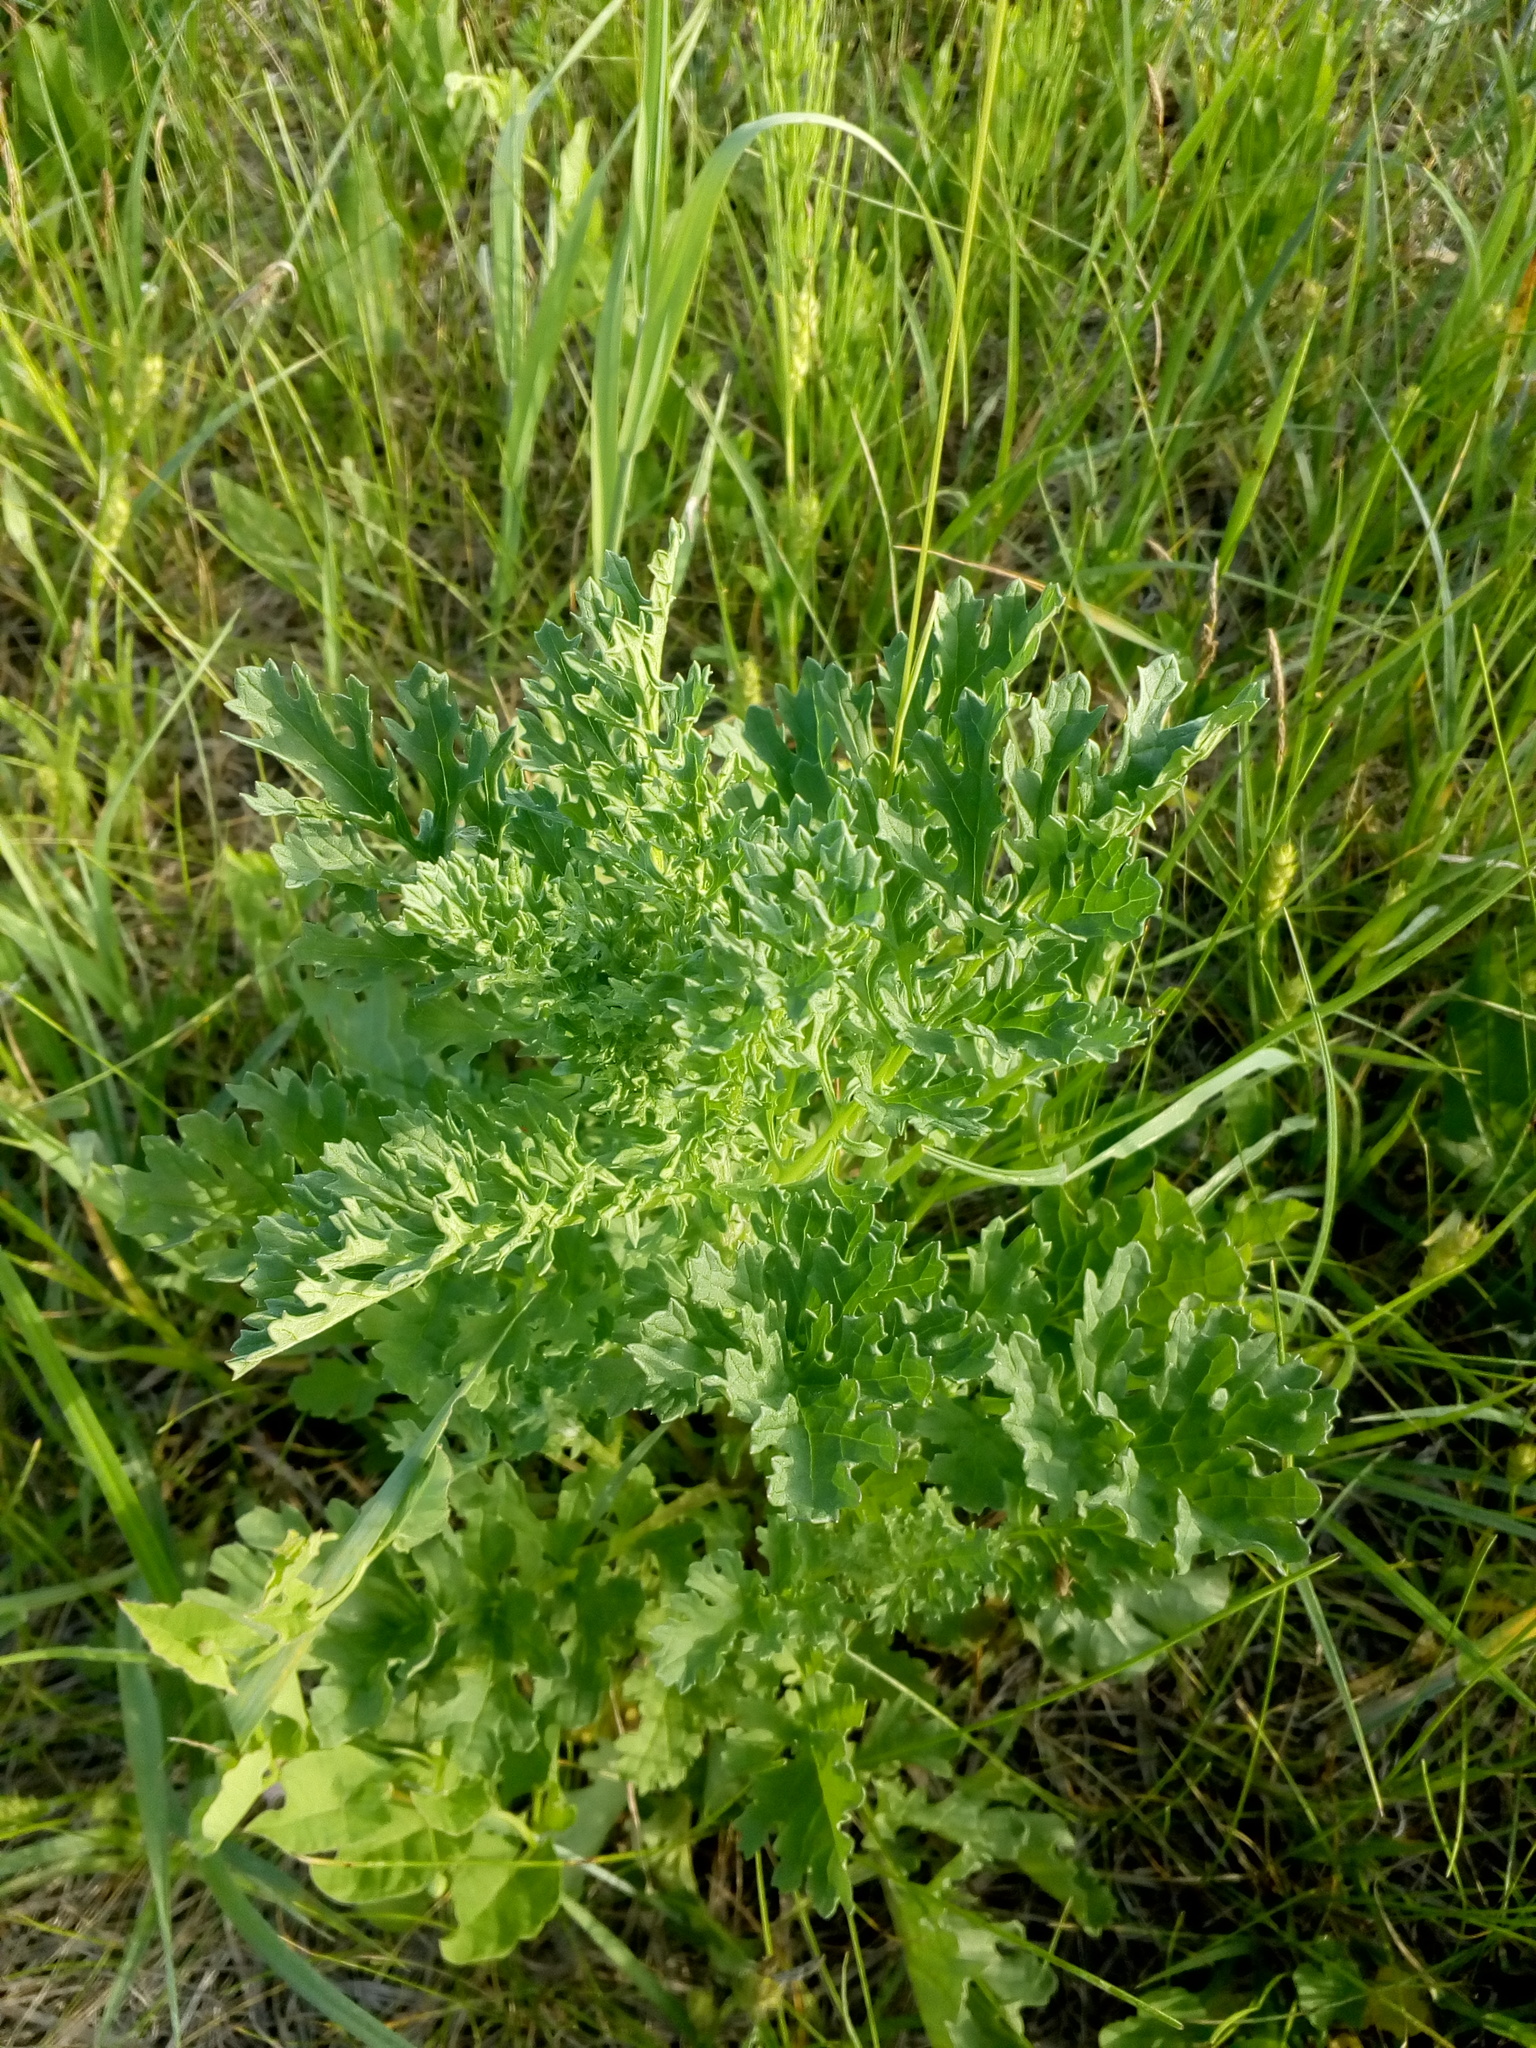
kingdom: Plantae
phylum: Tracheophyta
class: Magnoliopsida
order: Asterales
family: Asteraceae
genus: Jacobaea
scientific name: Jacobaea vulgaris
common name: Stinking willie
